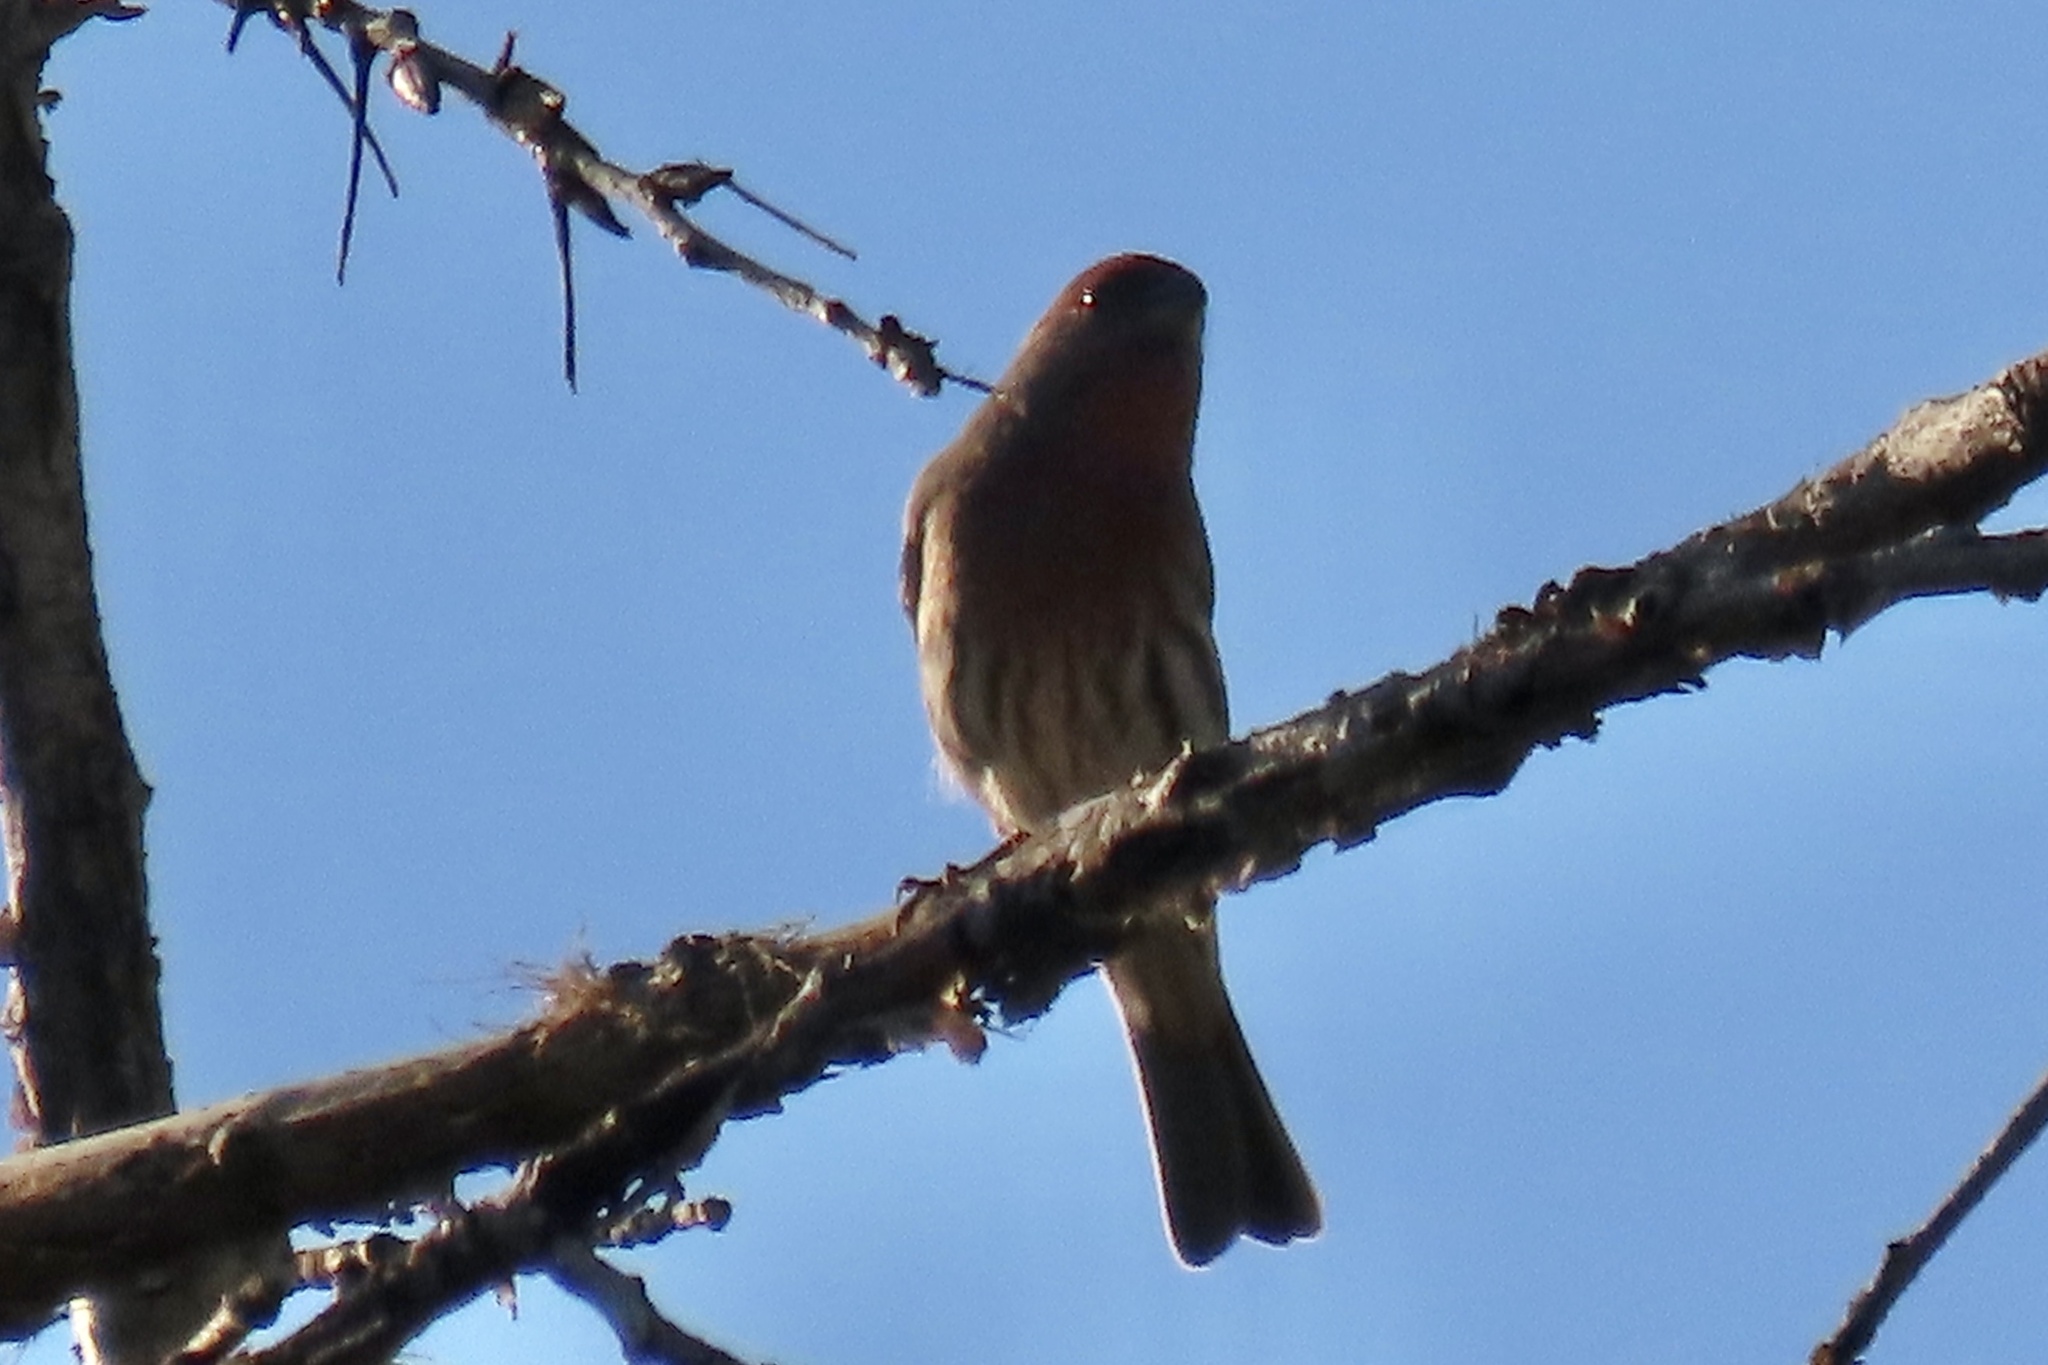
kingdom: Animalia
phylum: Chordata
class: Aves
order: Passeriformes
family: Fringillidae
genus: Haemorhous
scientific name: Haemorhous mexicanus
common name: House finch
